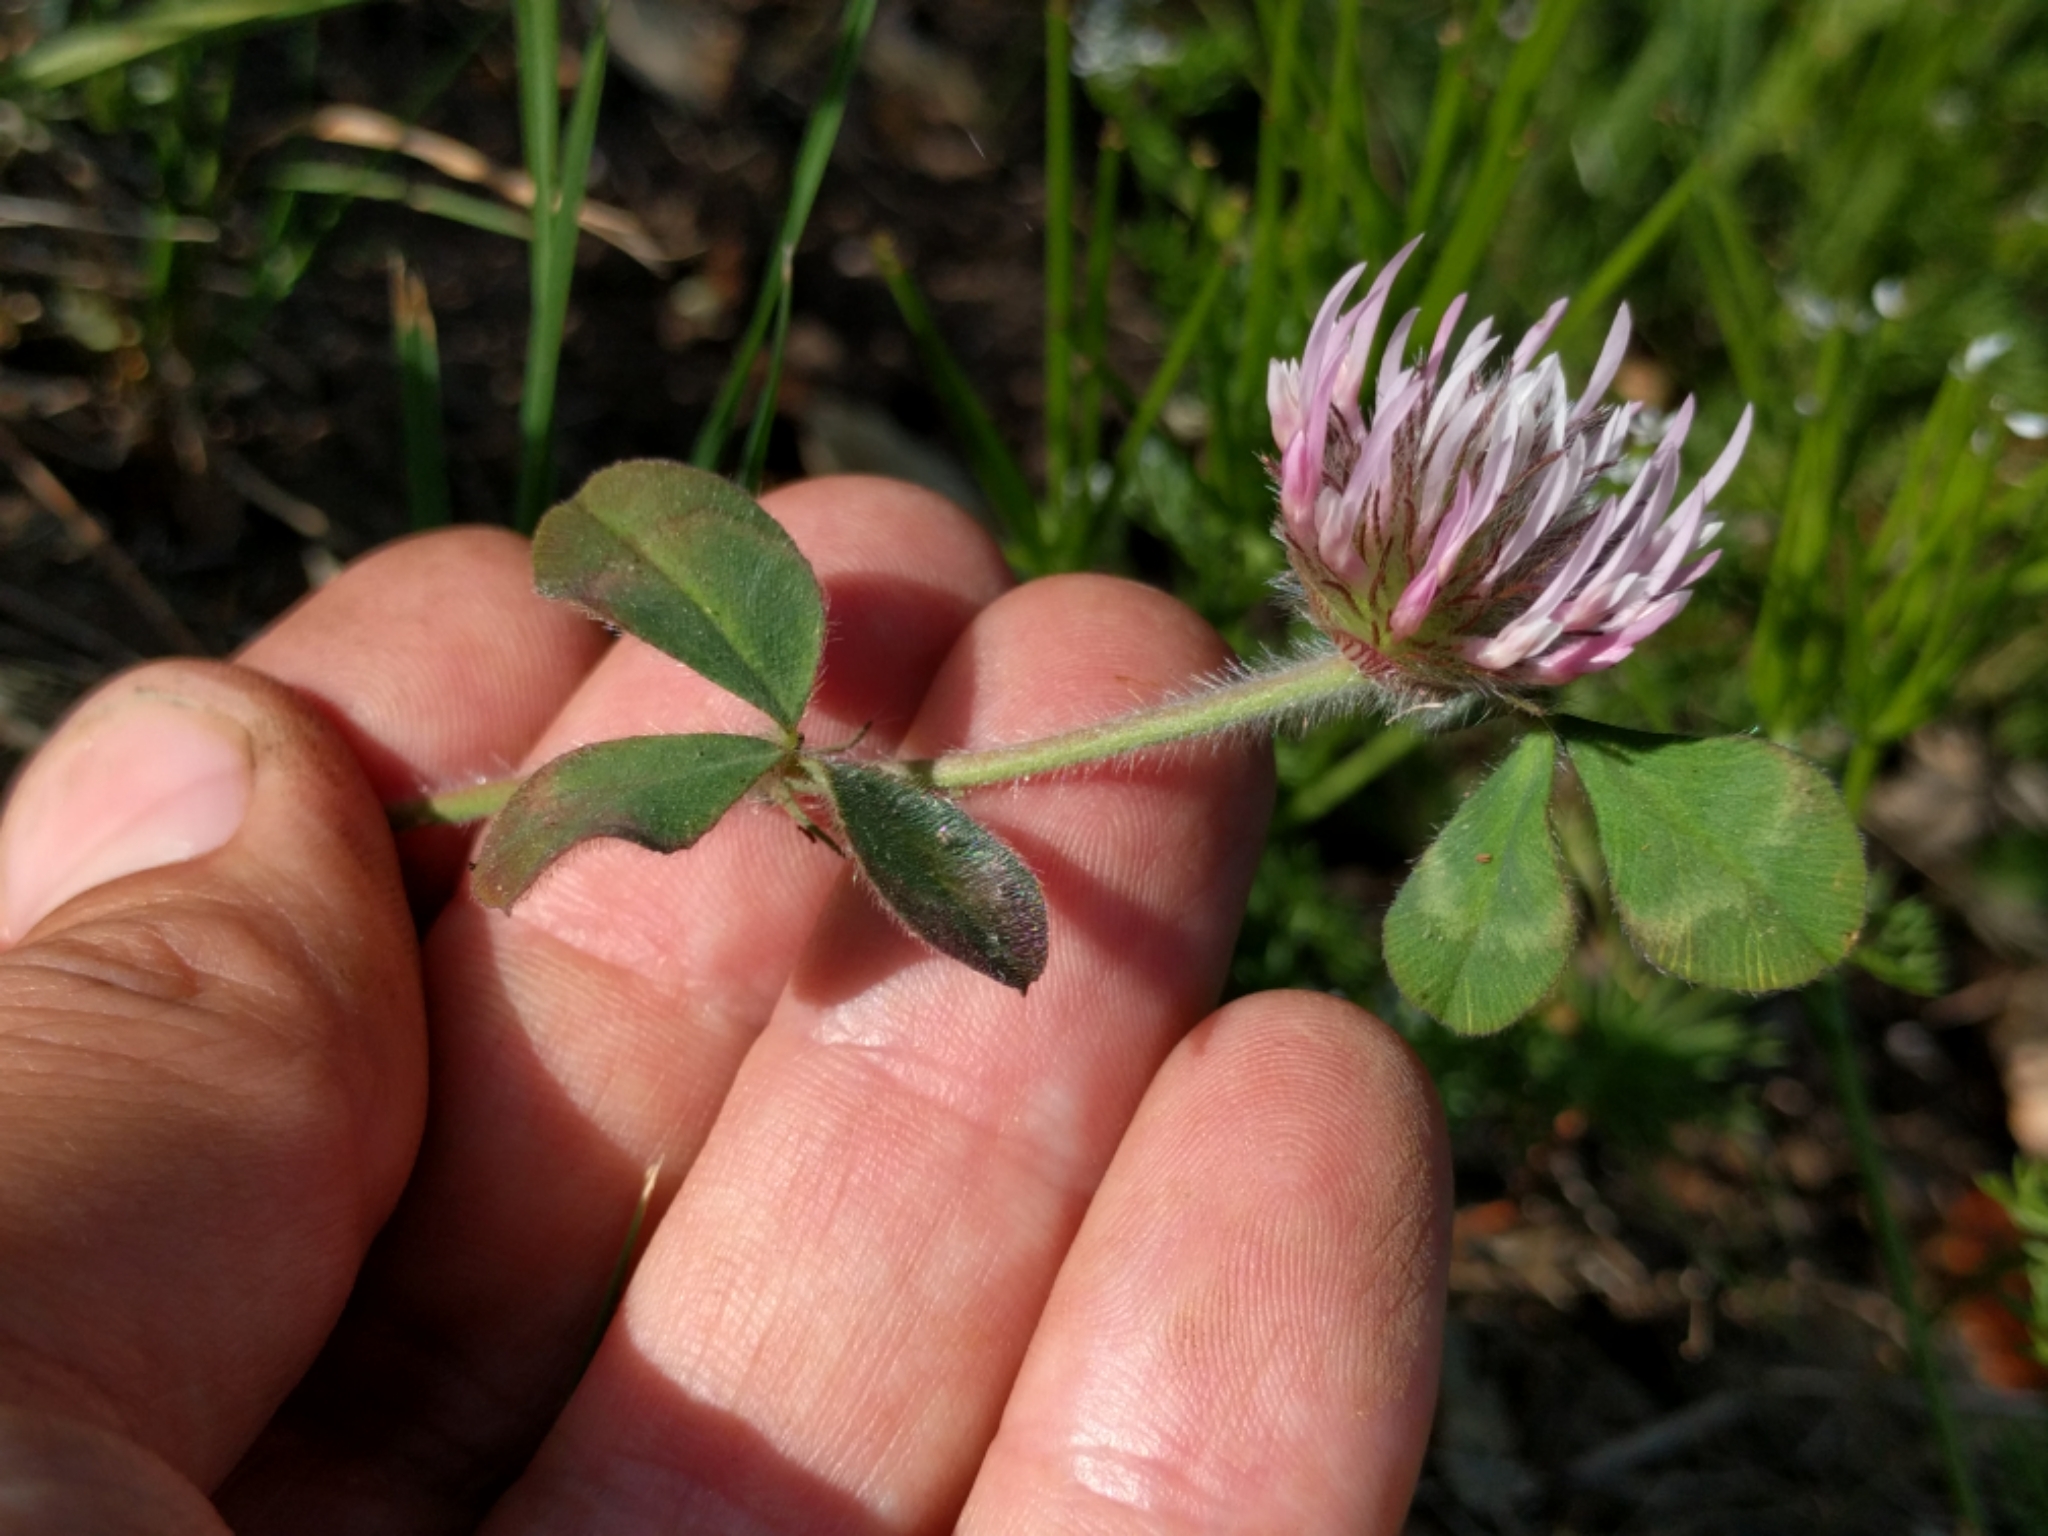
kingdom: Plantae
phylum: Tracheophyta
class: Magnoliopsida
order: Fabales
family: Fabaceae
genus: Trifolium
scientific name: Trifolium hirtum
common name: Rose clover
